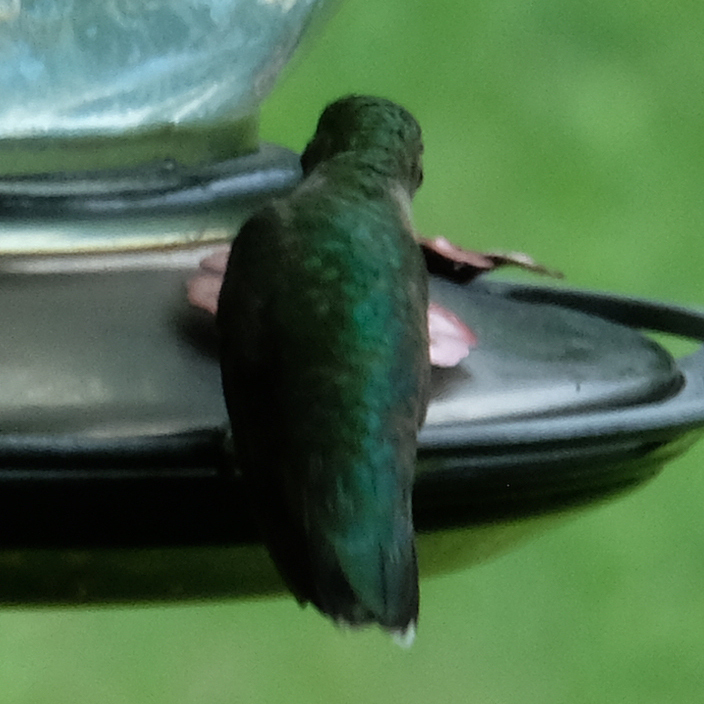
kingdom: Animalia
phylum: Chordata
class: Aves
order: Apodiformes
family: Trochilidae
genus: Archilochus
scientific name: Archilochus colubris
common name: Ruby-throated hummingbird
